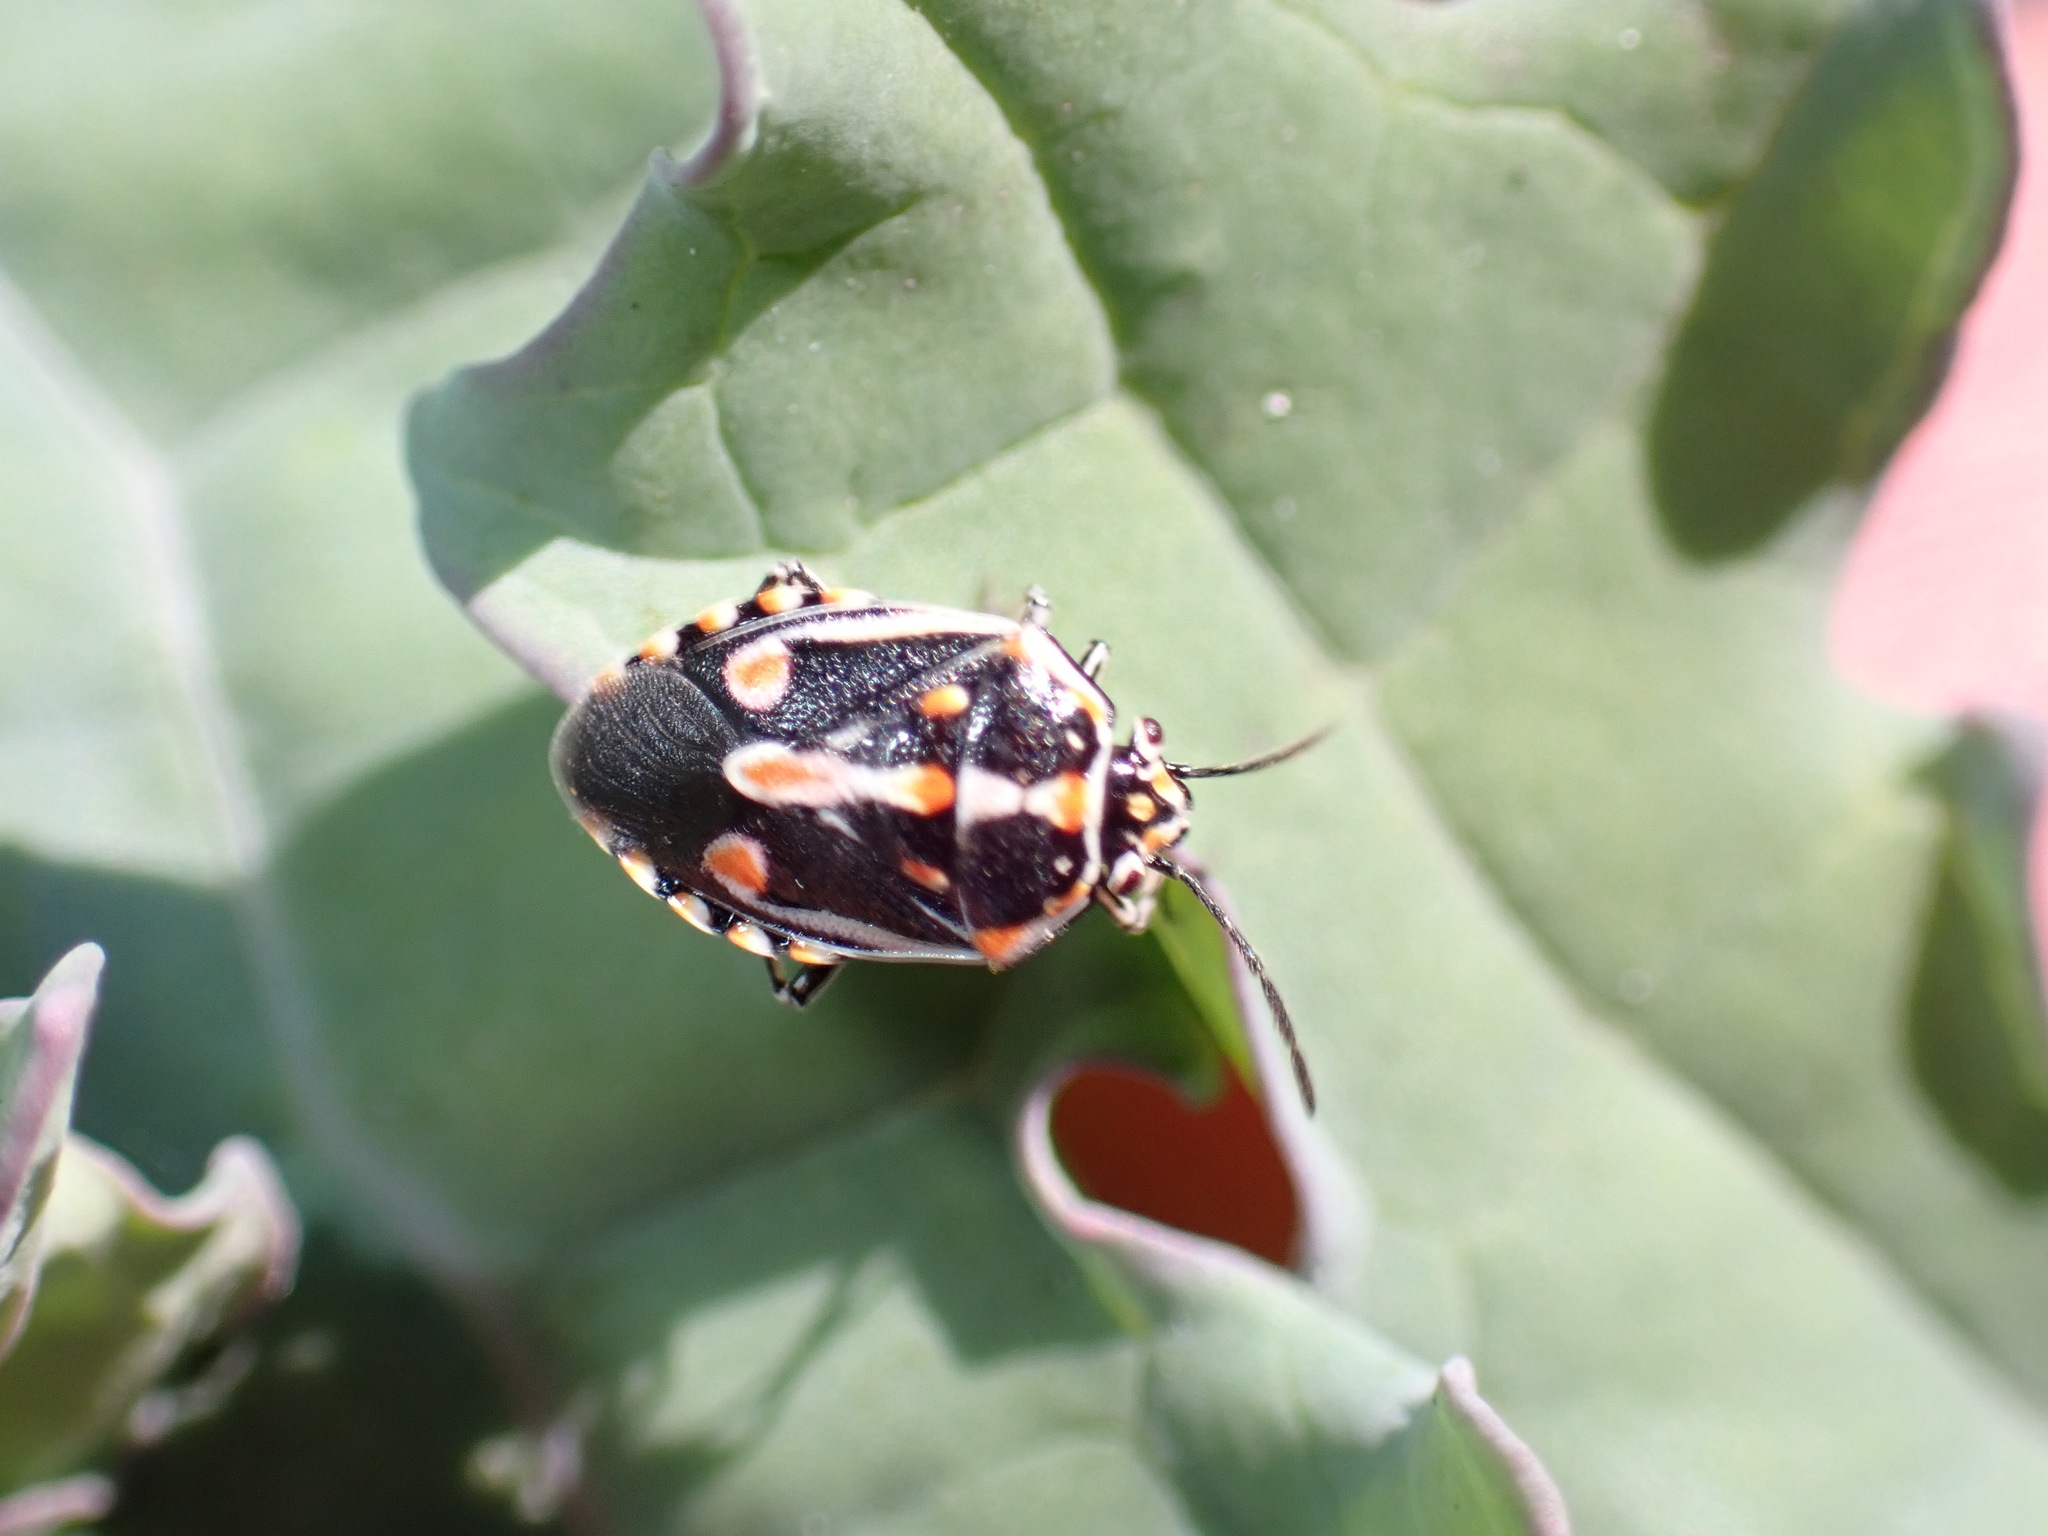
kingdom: Animalia
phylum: Arthropoda
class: Insecta
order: Hemiptera
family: Pentatomidae
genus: Bagrada
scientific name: Bagrada hilaris
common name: Bagrada bug
